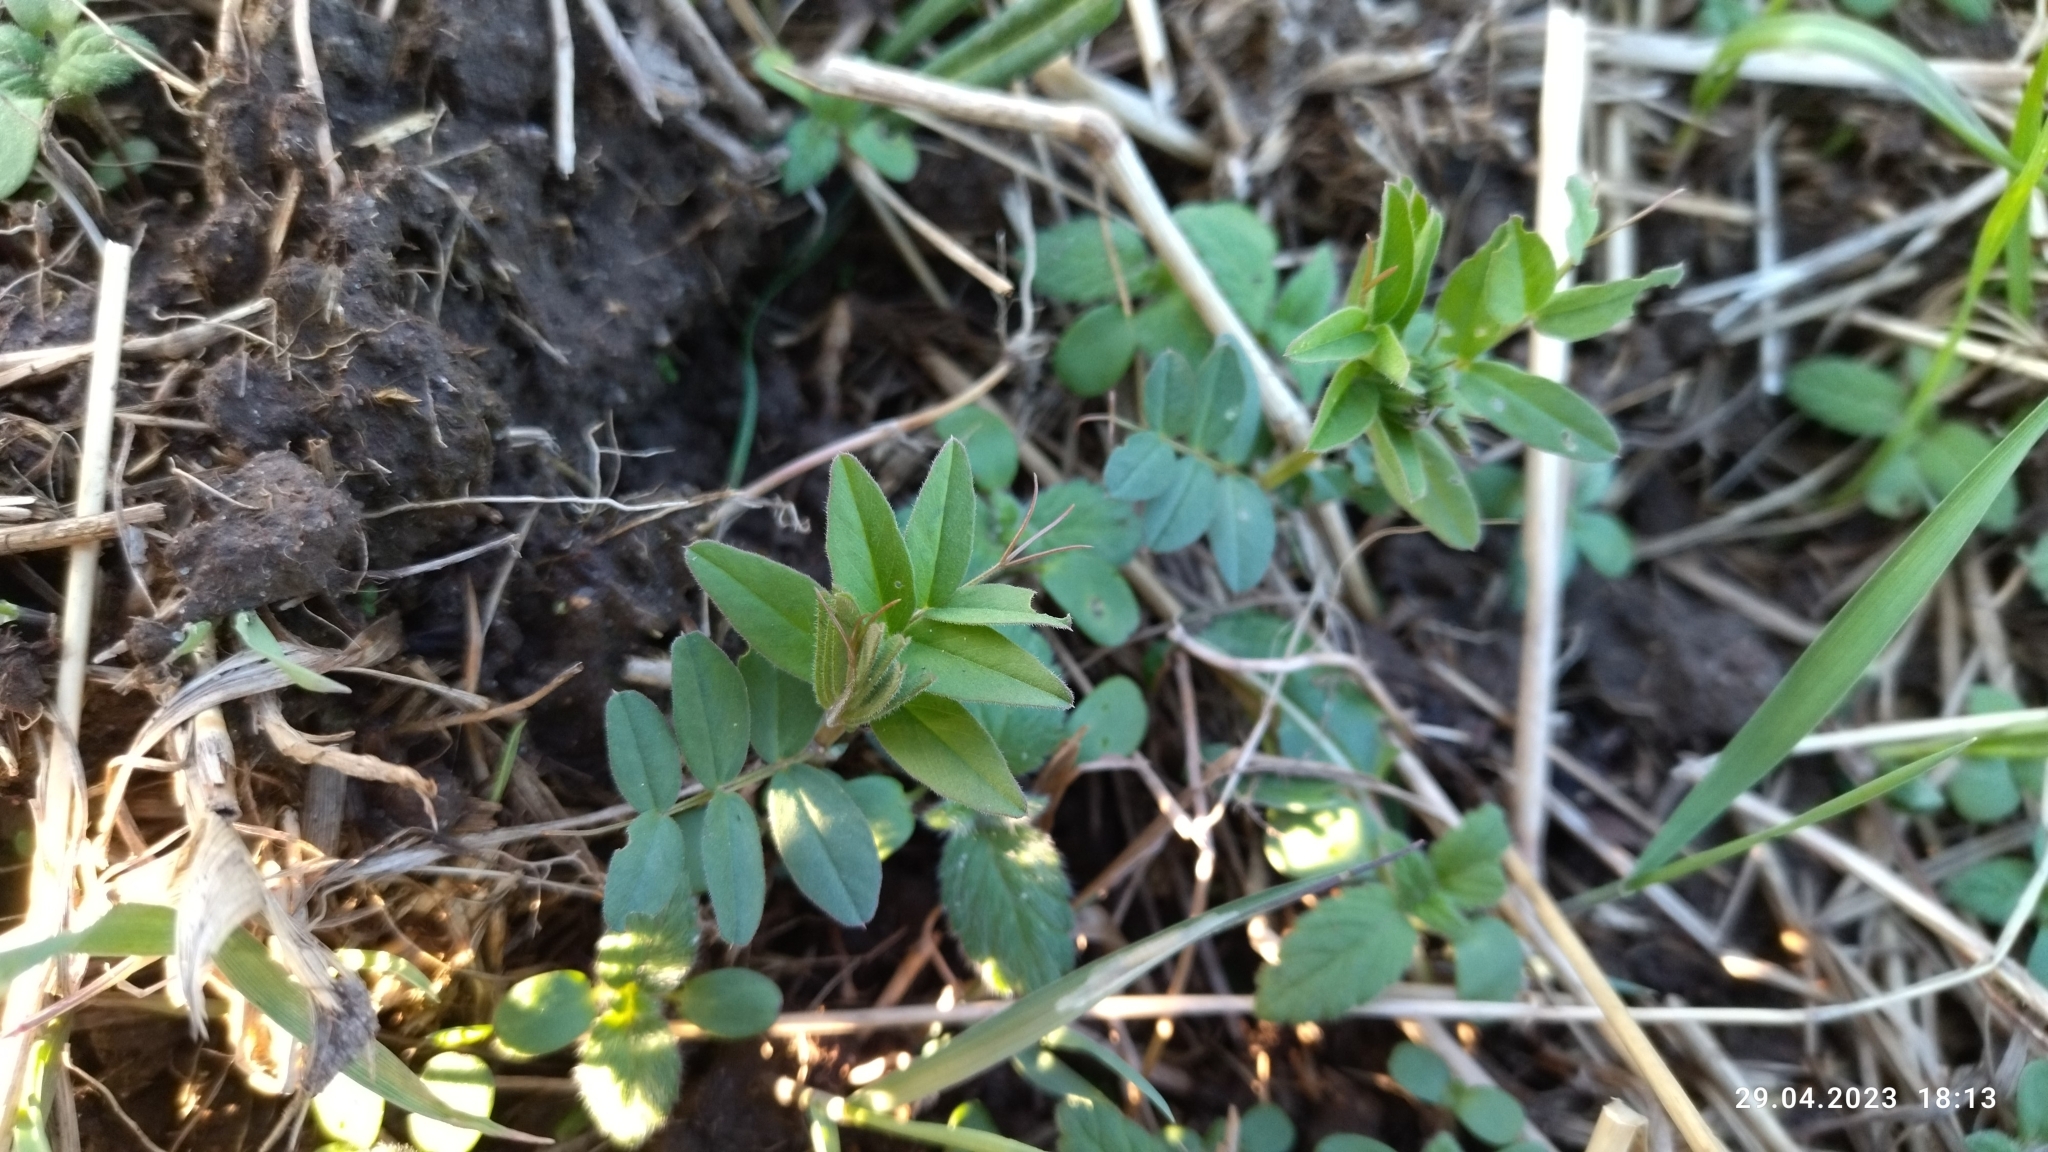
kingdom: Plantae
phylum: Tracheophyta
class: Magnoliopsida
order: Fabales
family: Fabaceae
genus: Vicia
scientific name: Vicia sepium
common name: Bush vetch
